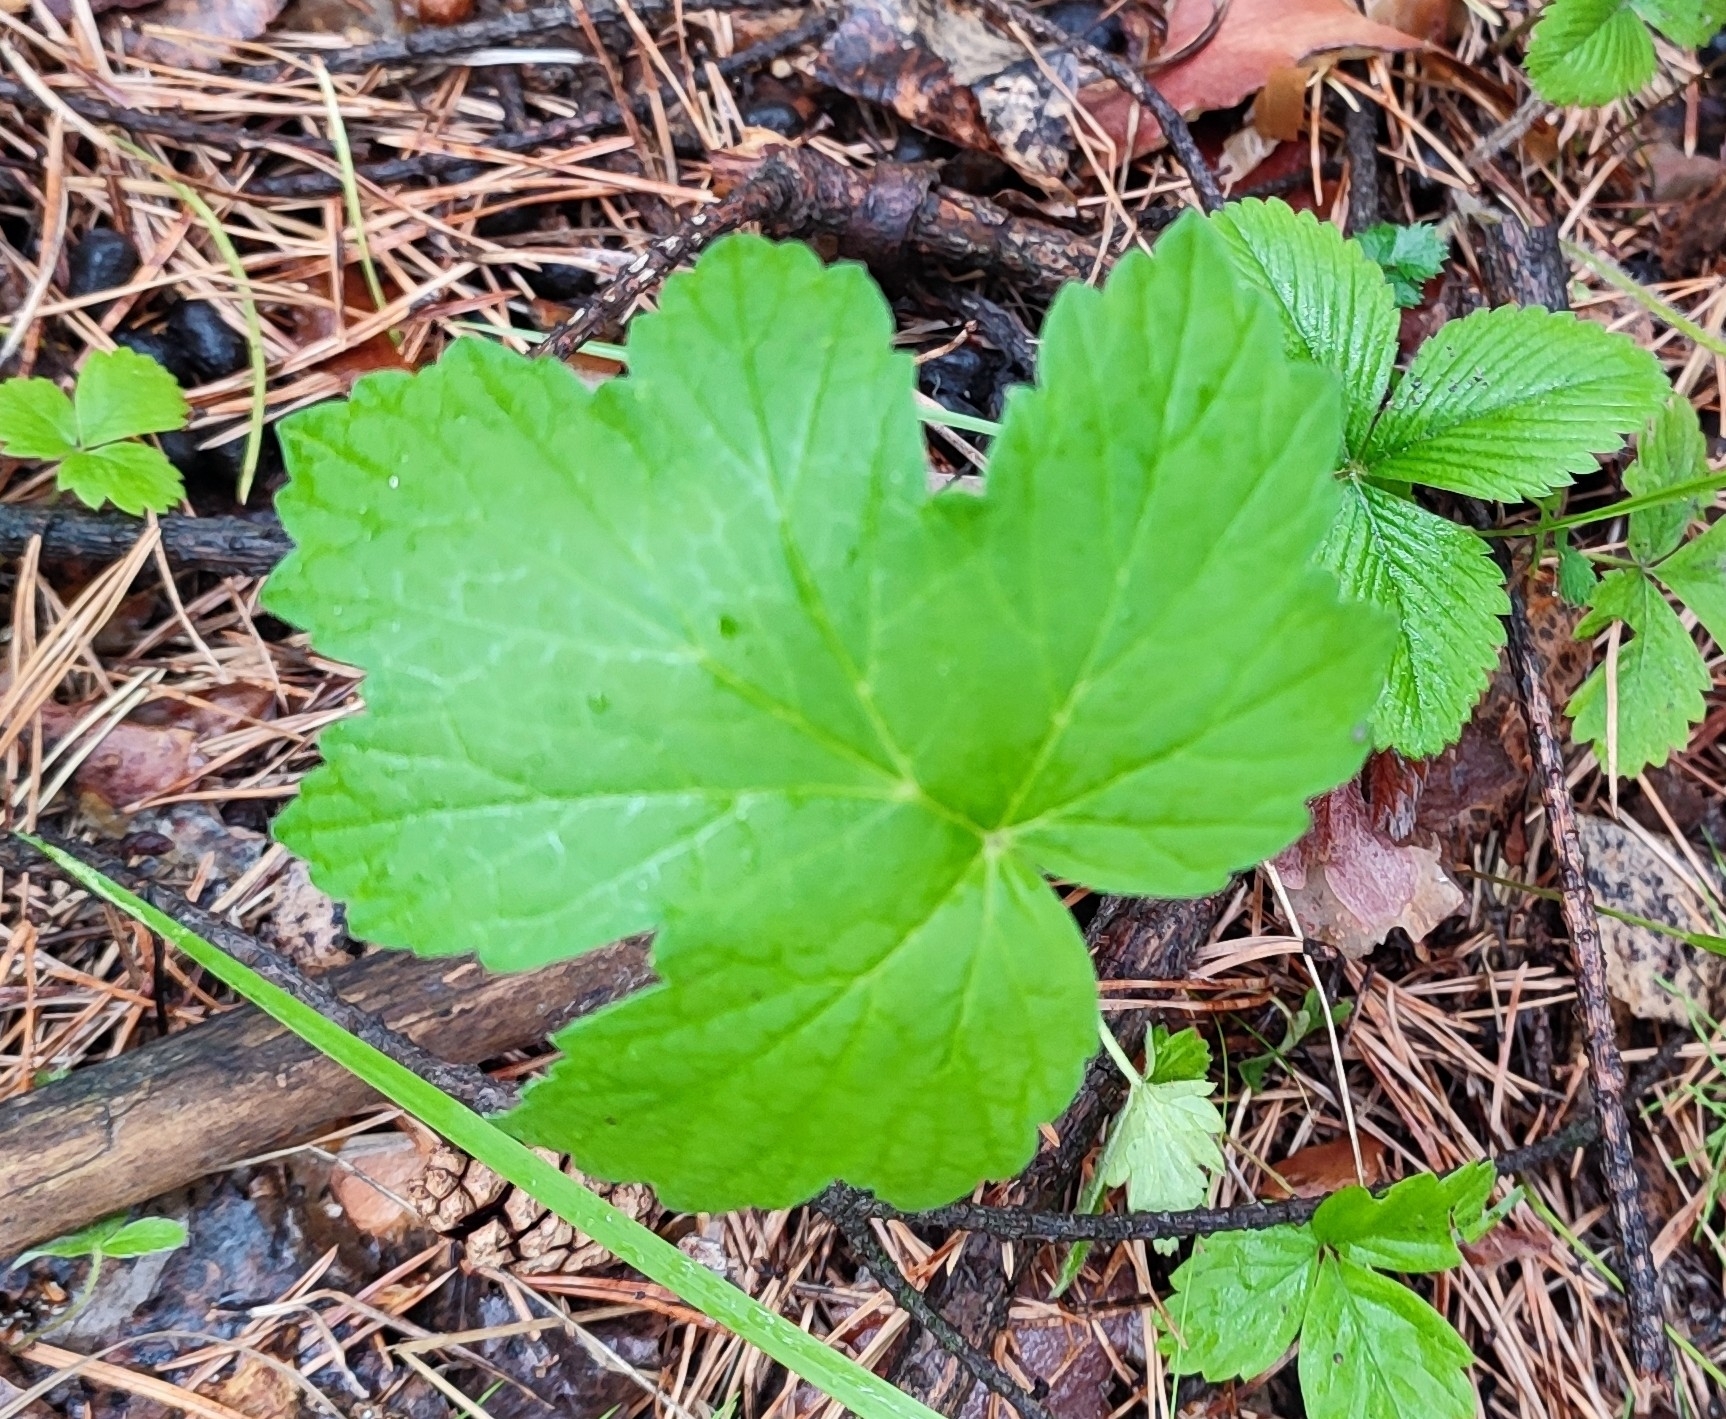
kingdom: Plantae
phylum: Tracheophyta
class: Magnoliopsida
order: Apiales
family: Apiaceae
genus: Heracleum
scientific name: Heracleum sphondylium
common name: Hogweed
